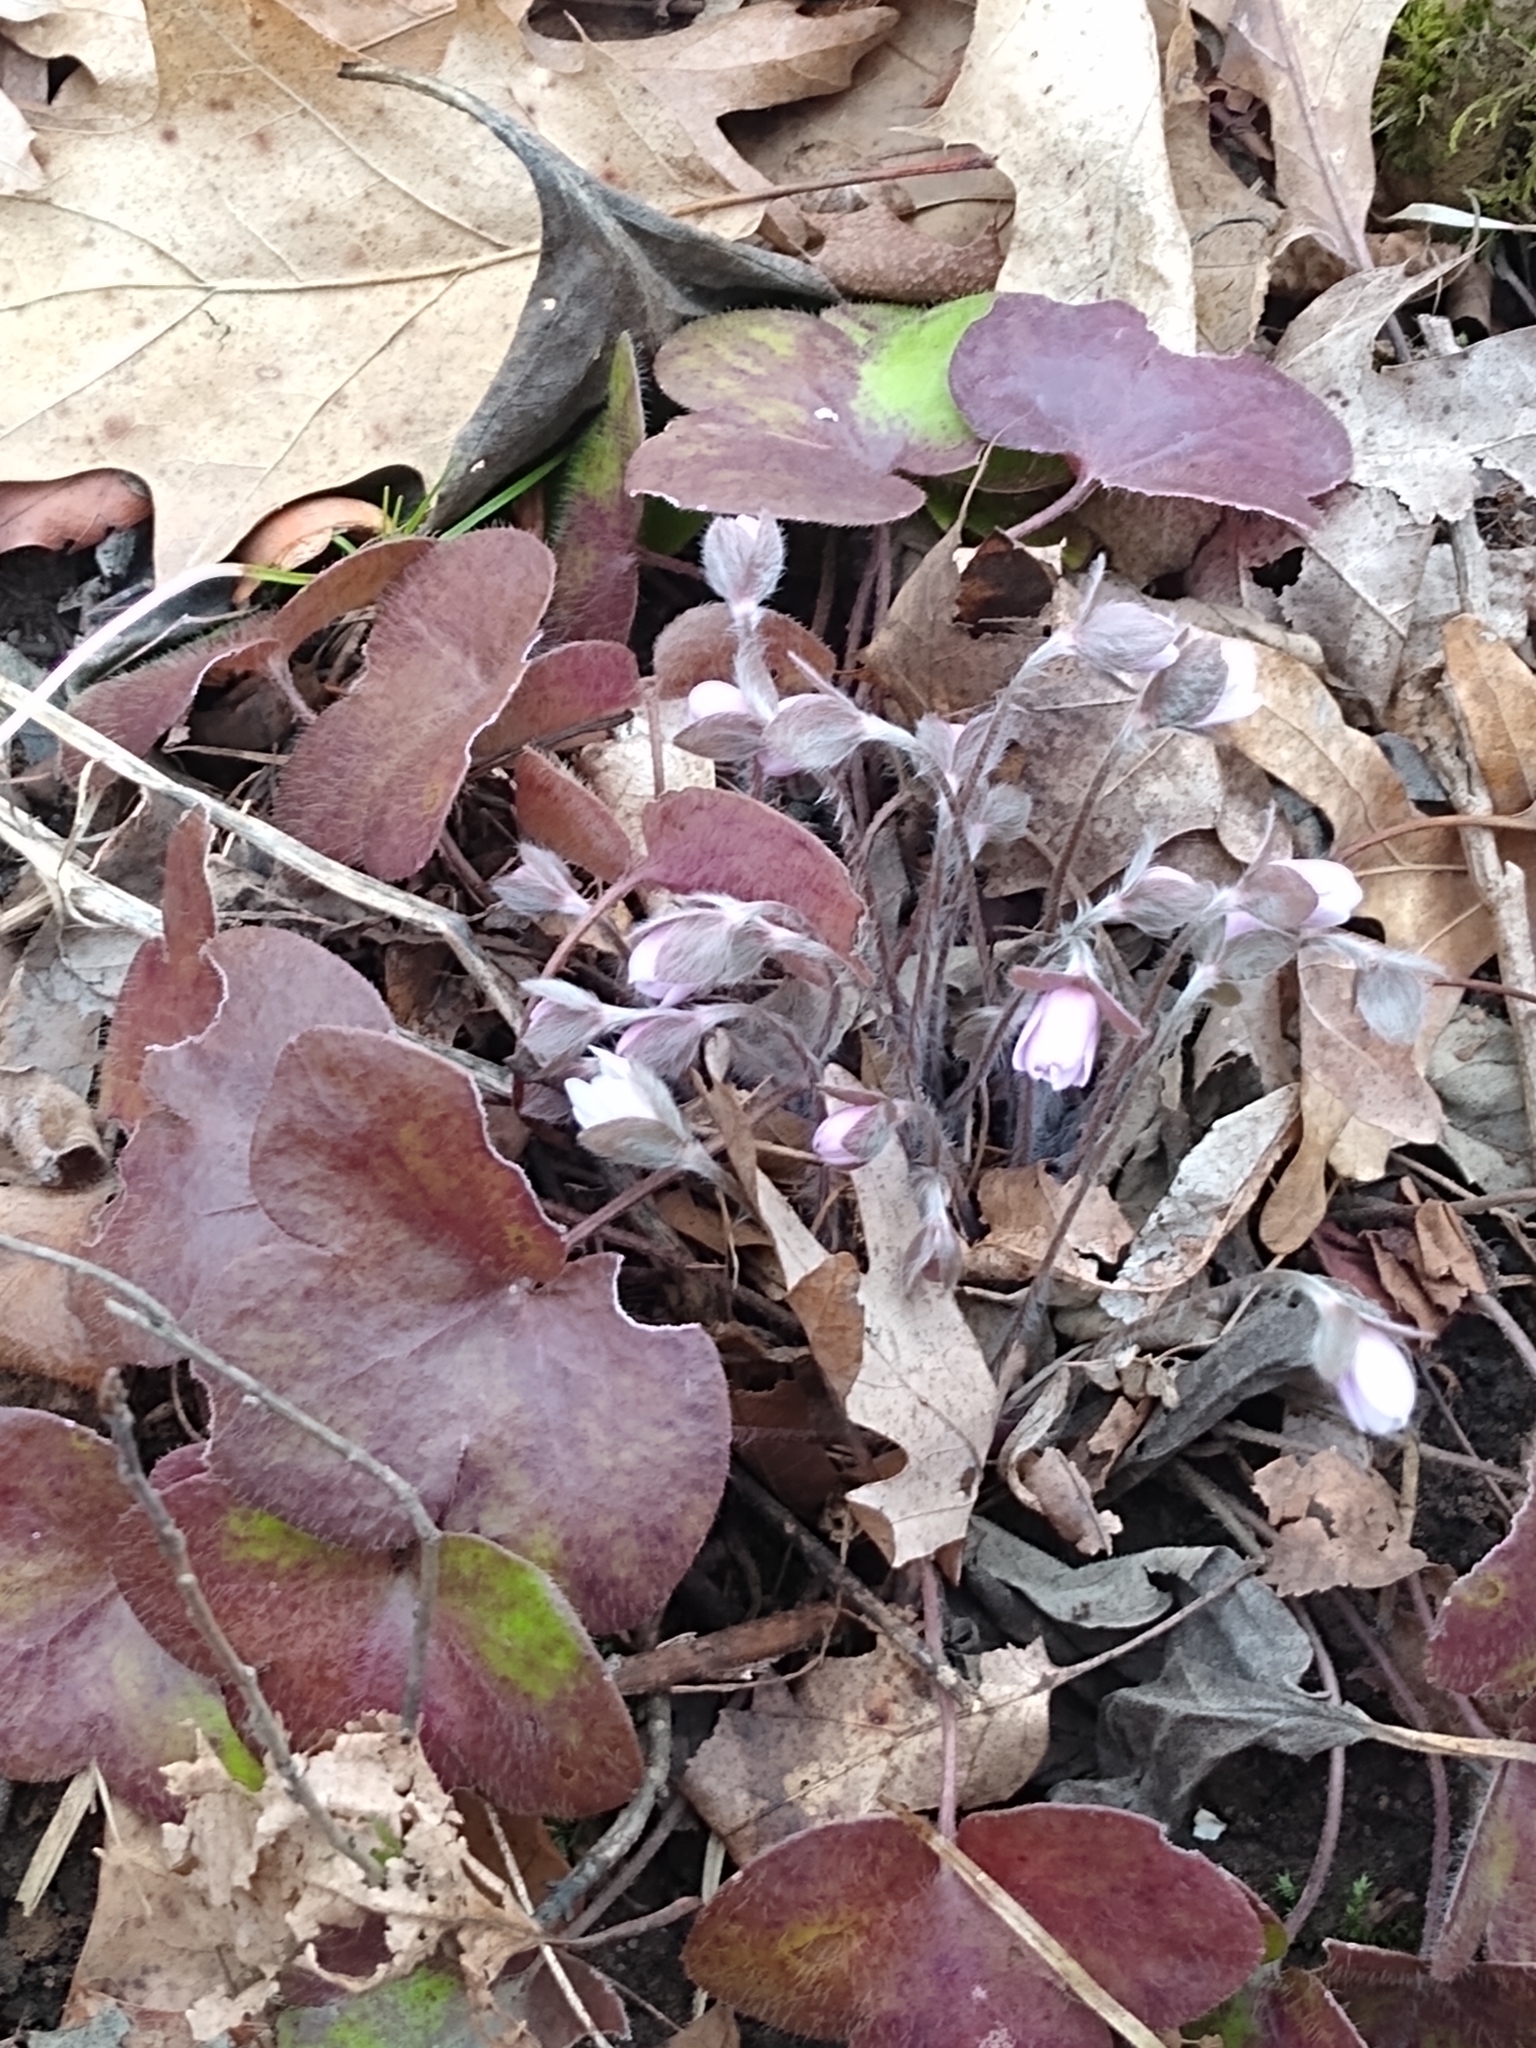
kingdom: Plantae
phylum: Tracheophyta
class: Magnoliopsida
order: Ranunculales
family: Ranunculaceae
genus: Hepatica
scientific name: Hepatica americana
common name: American hepatica
